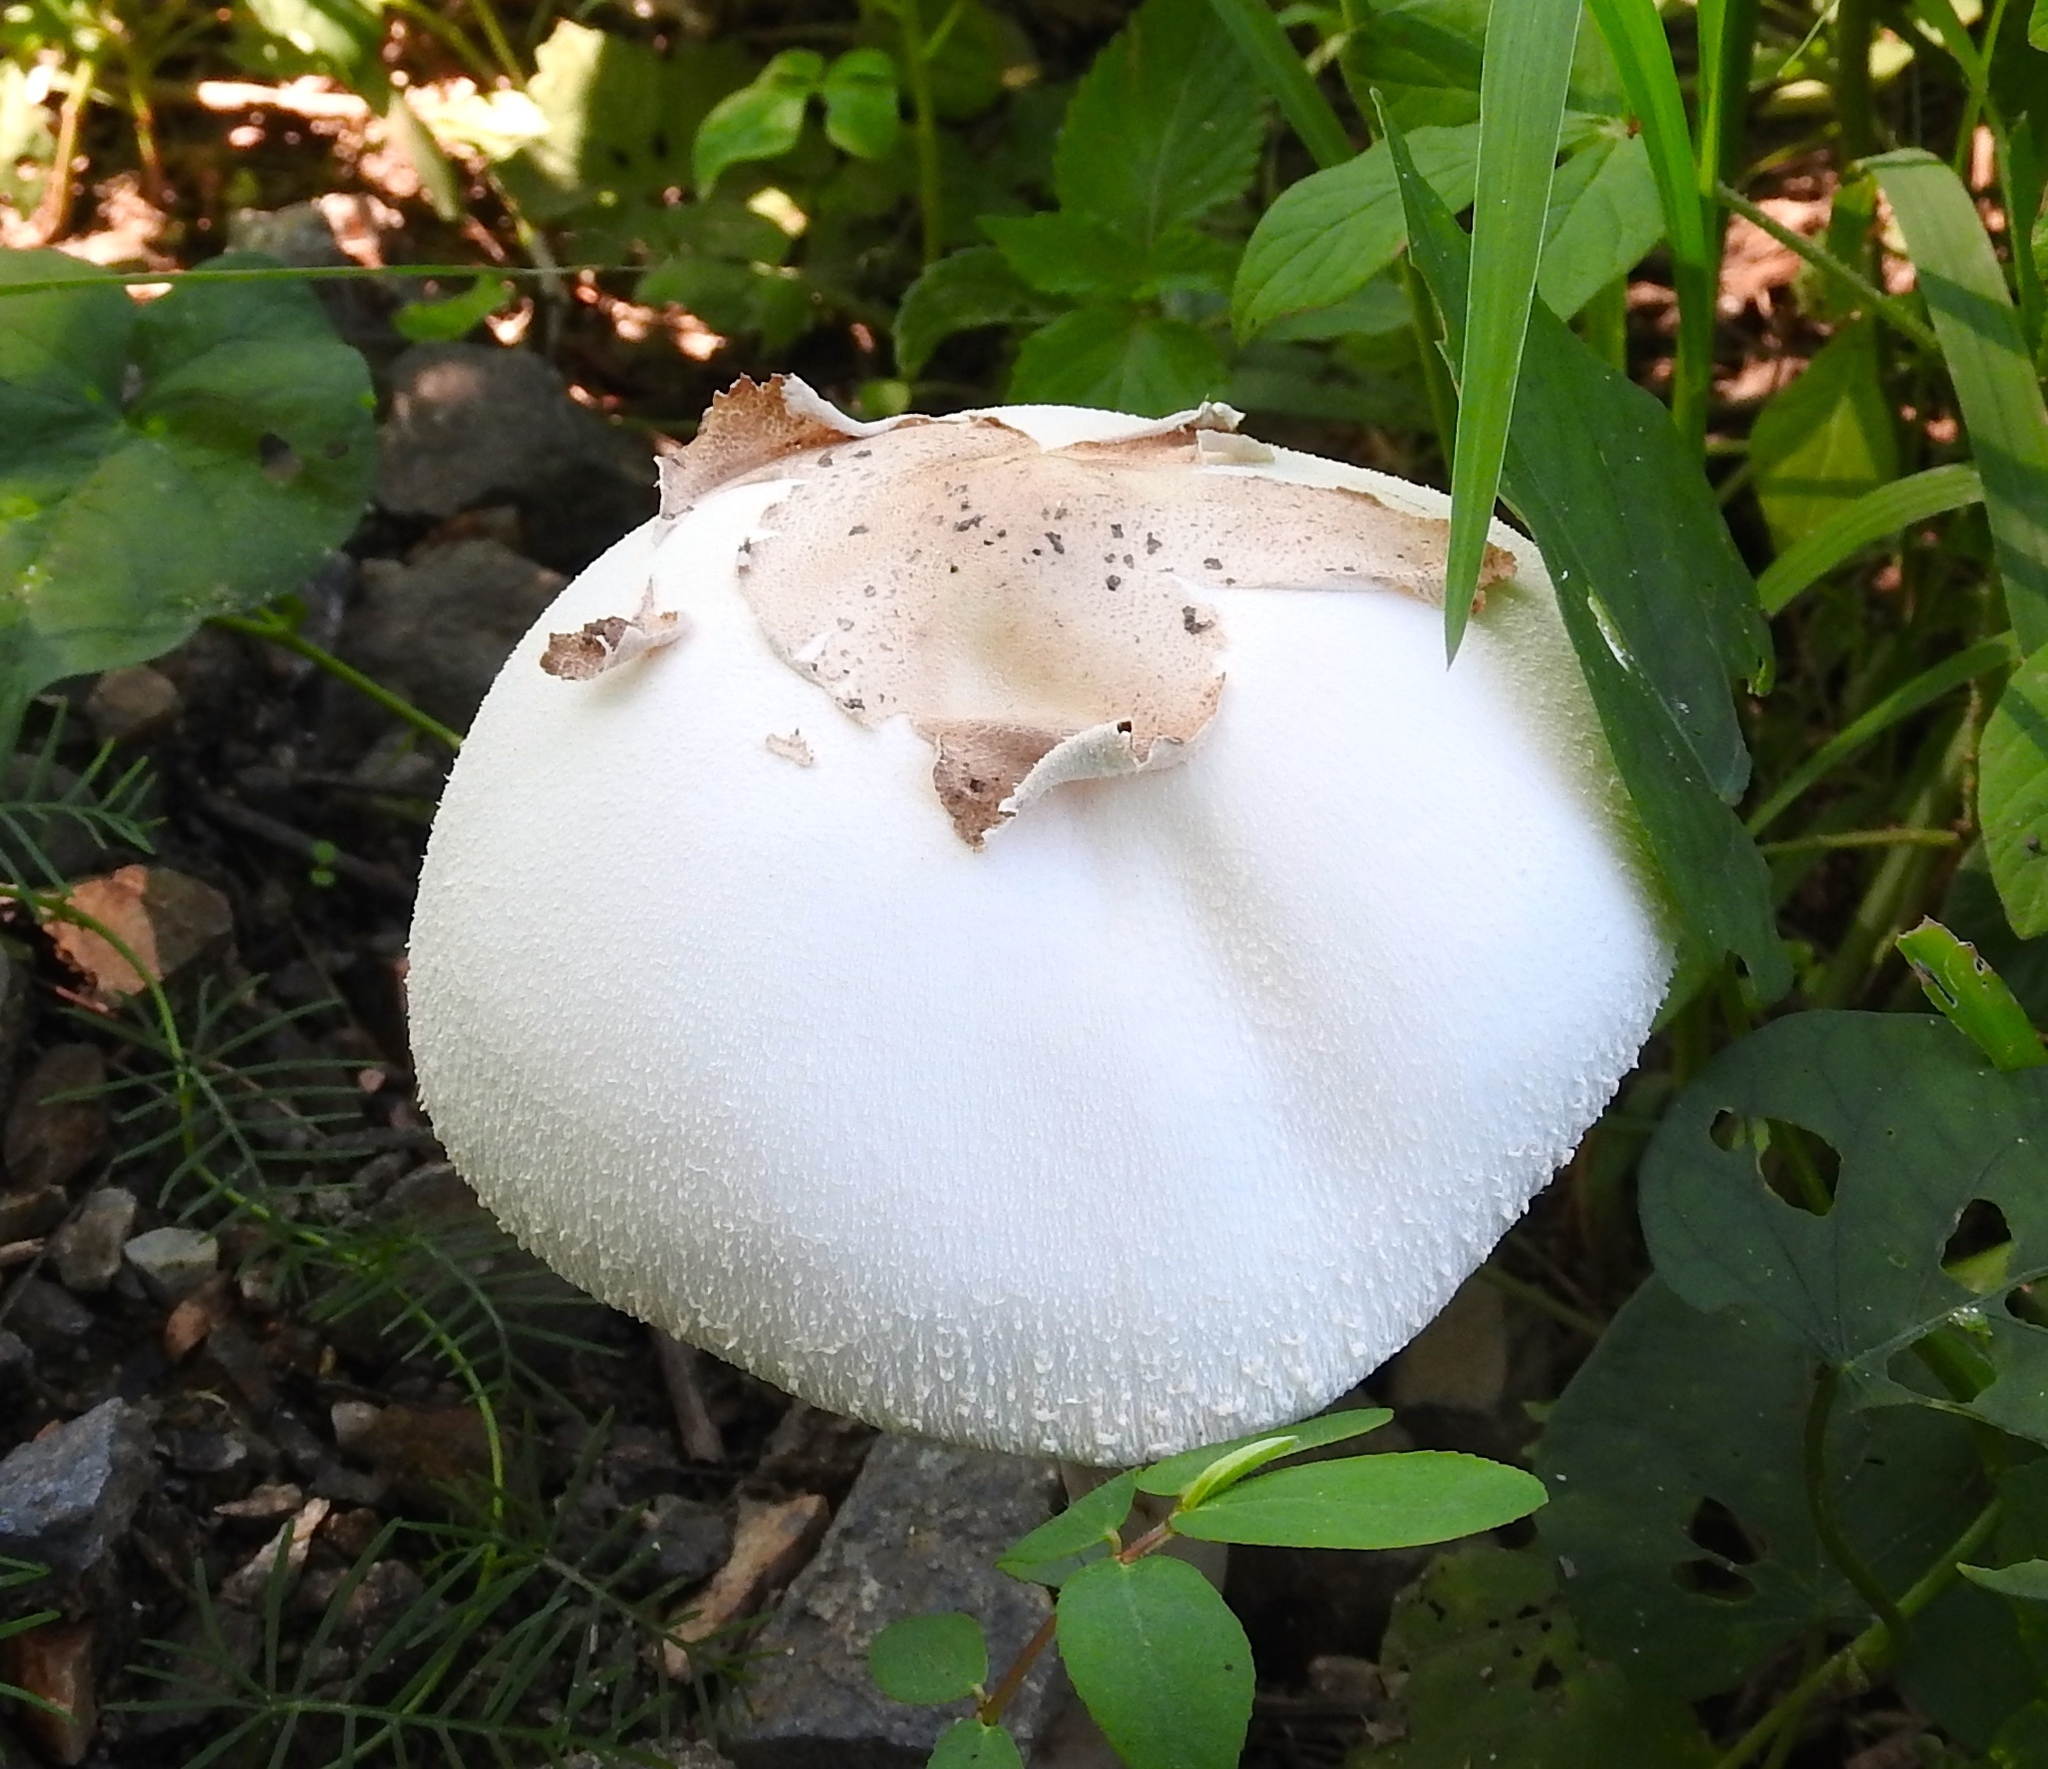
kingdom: Fungi
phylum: Basidiomycota
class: Agaricomycetes
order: Agaricales
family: Agaricaceae
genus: Chlorophyllum
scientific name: Chlorophyllum molybdites
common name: False parasol
